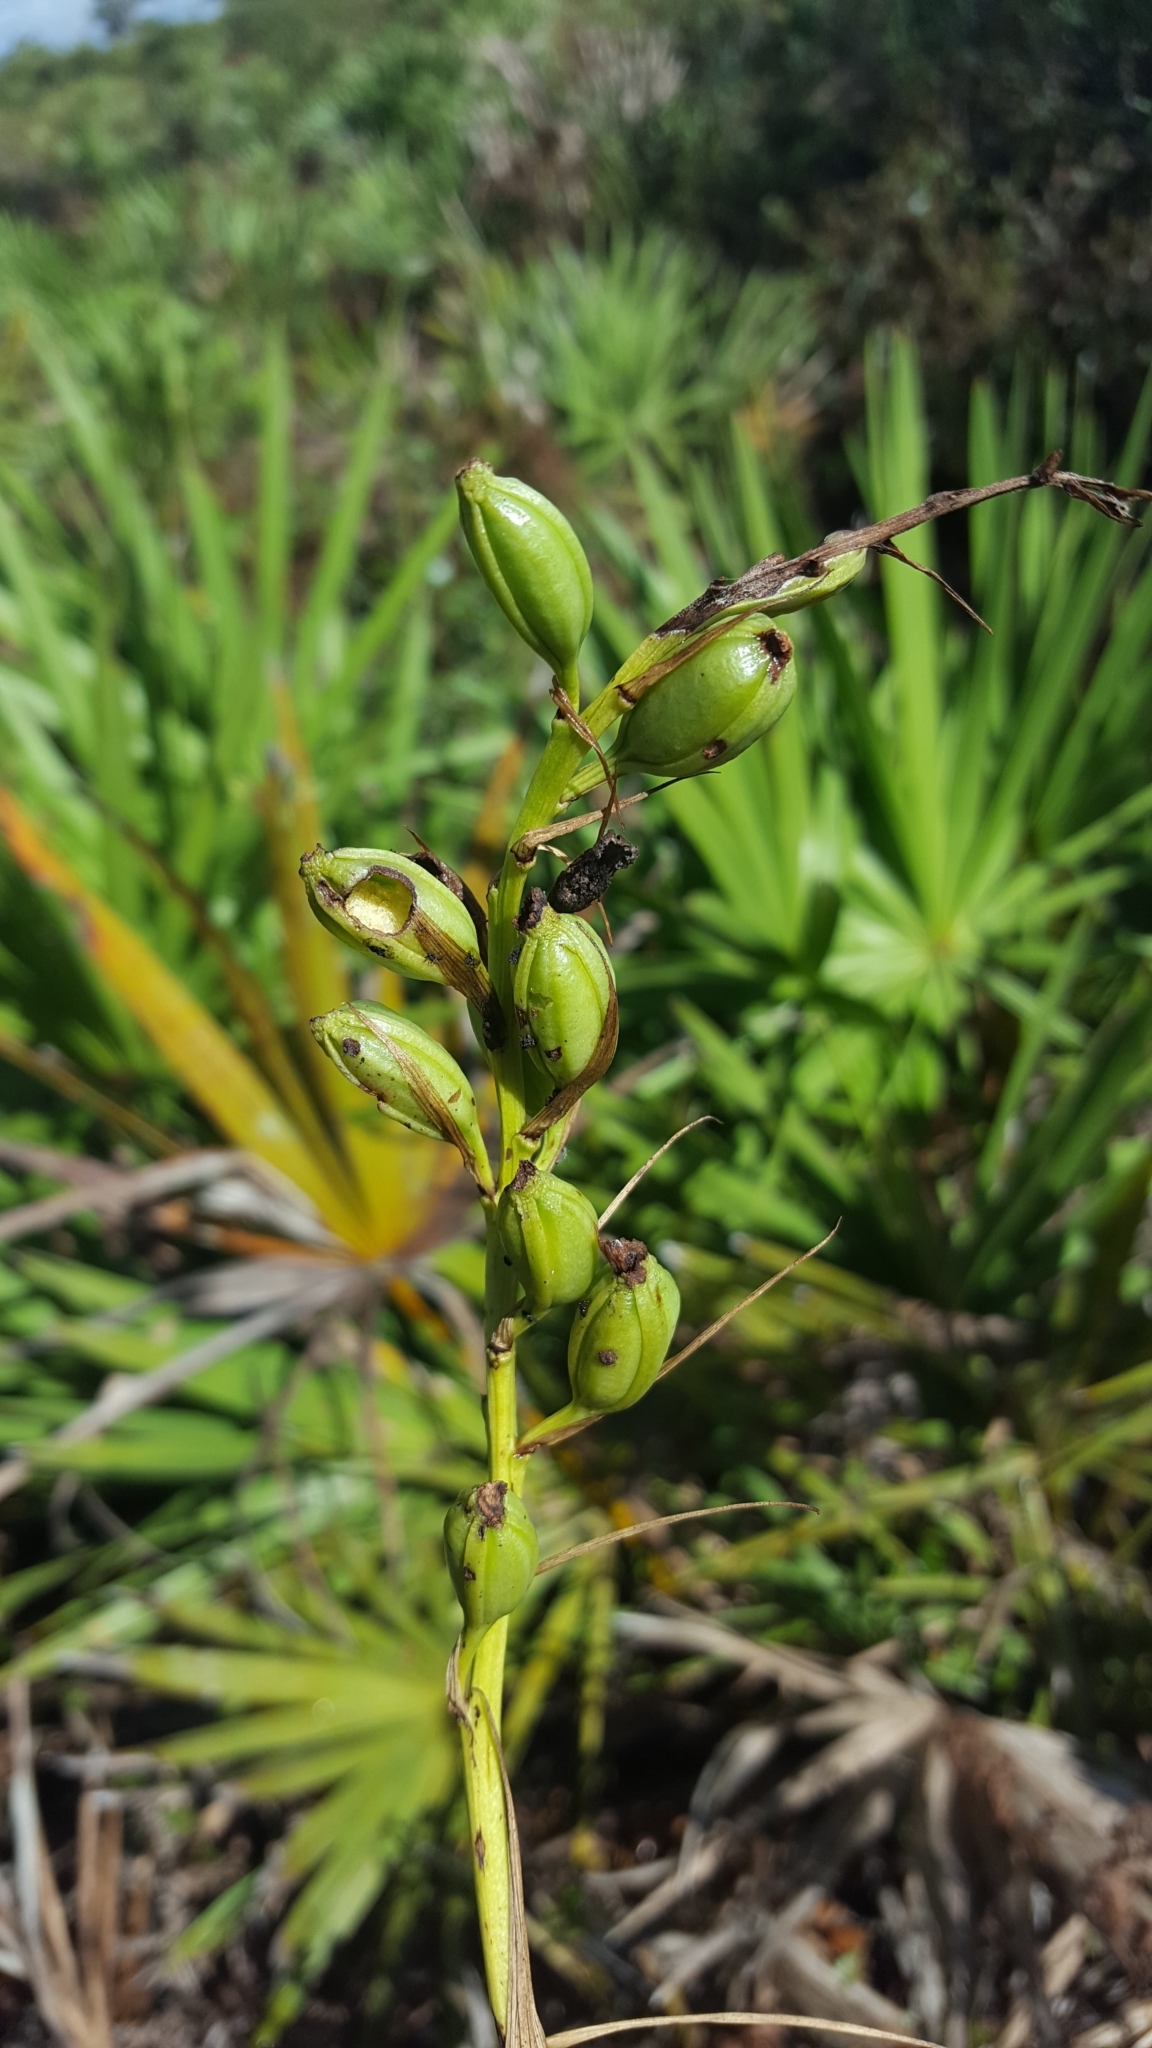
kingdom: Plantae
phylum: Tracheophyta
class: Liliopsida
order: Asparagales
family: Orchidaceae
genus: Eulophia
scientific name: Eulophia ecristata
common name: Giant orchid
